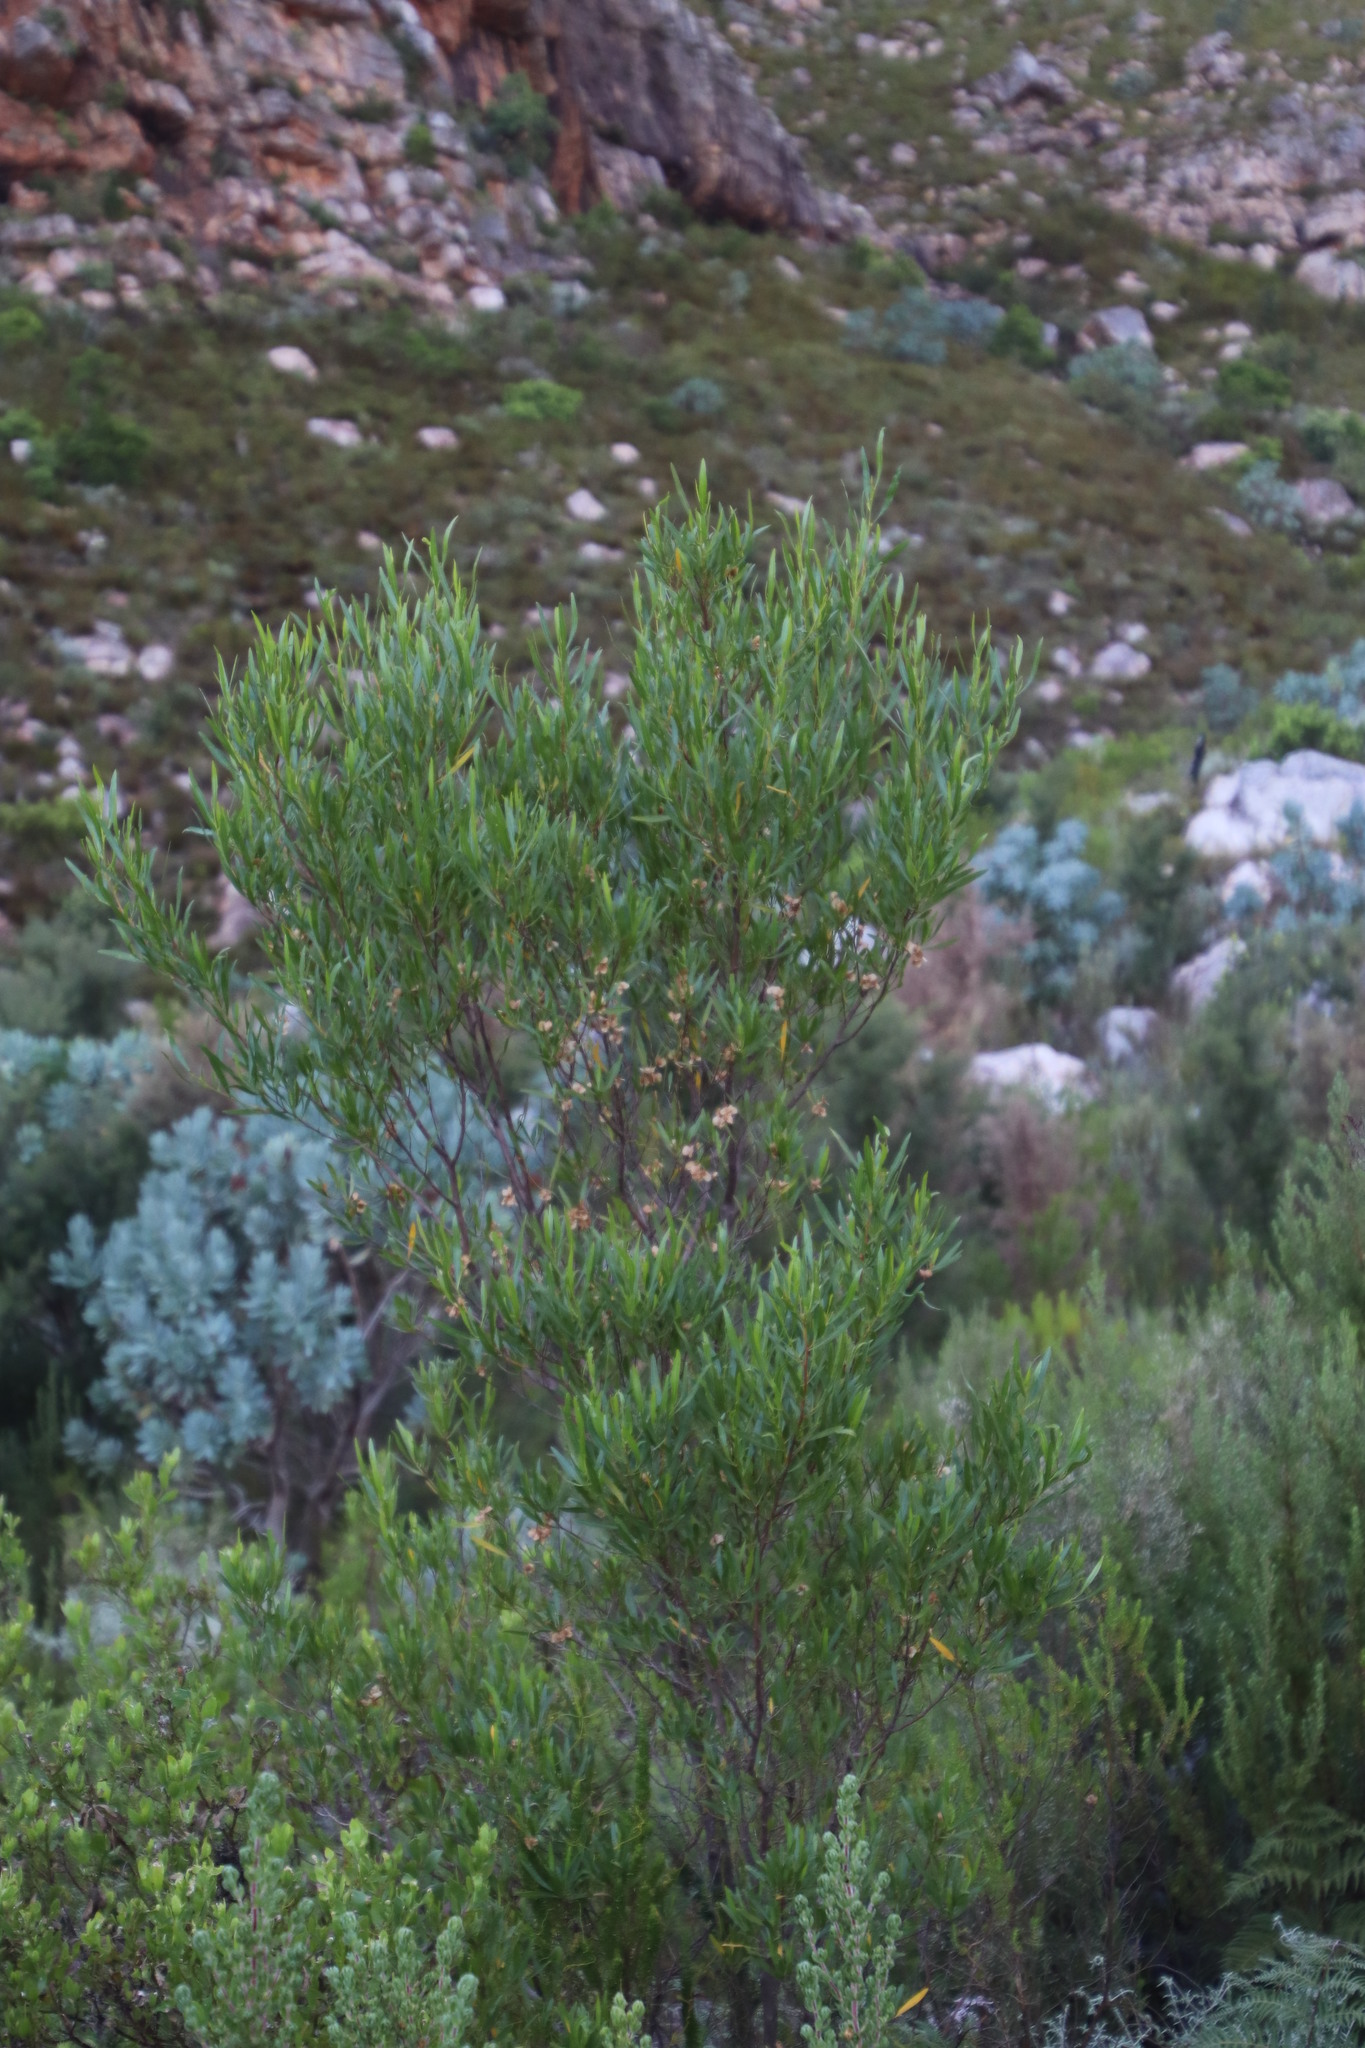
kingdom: Plantae
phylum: Tracheophyta
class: Magnoliopsida
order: Sapindales
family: Sapindaceae
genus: Dodonaea
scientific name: Dodonaea viscosa
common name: Hopbush
